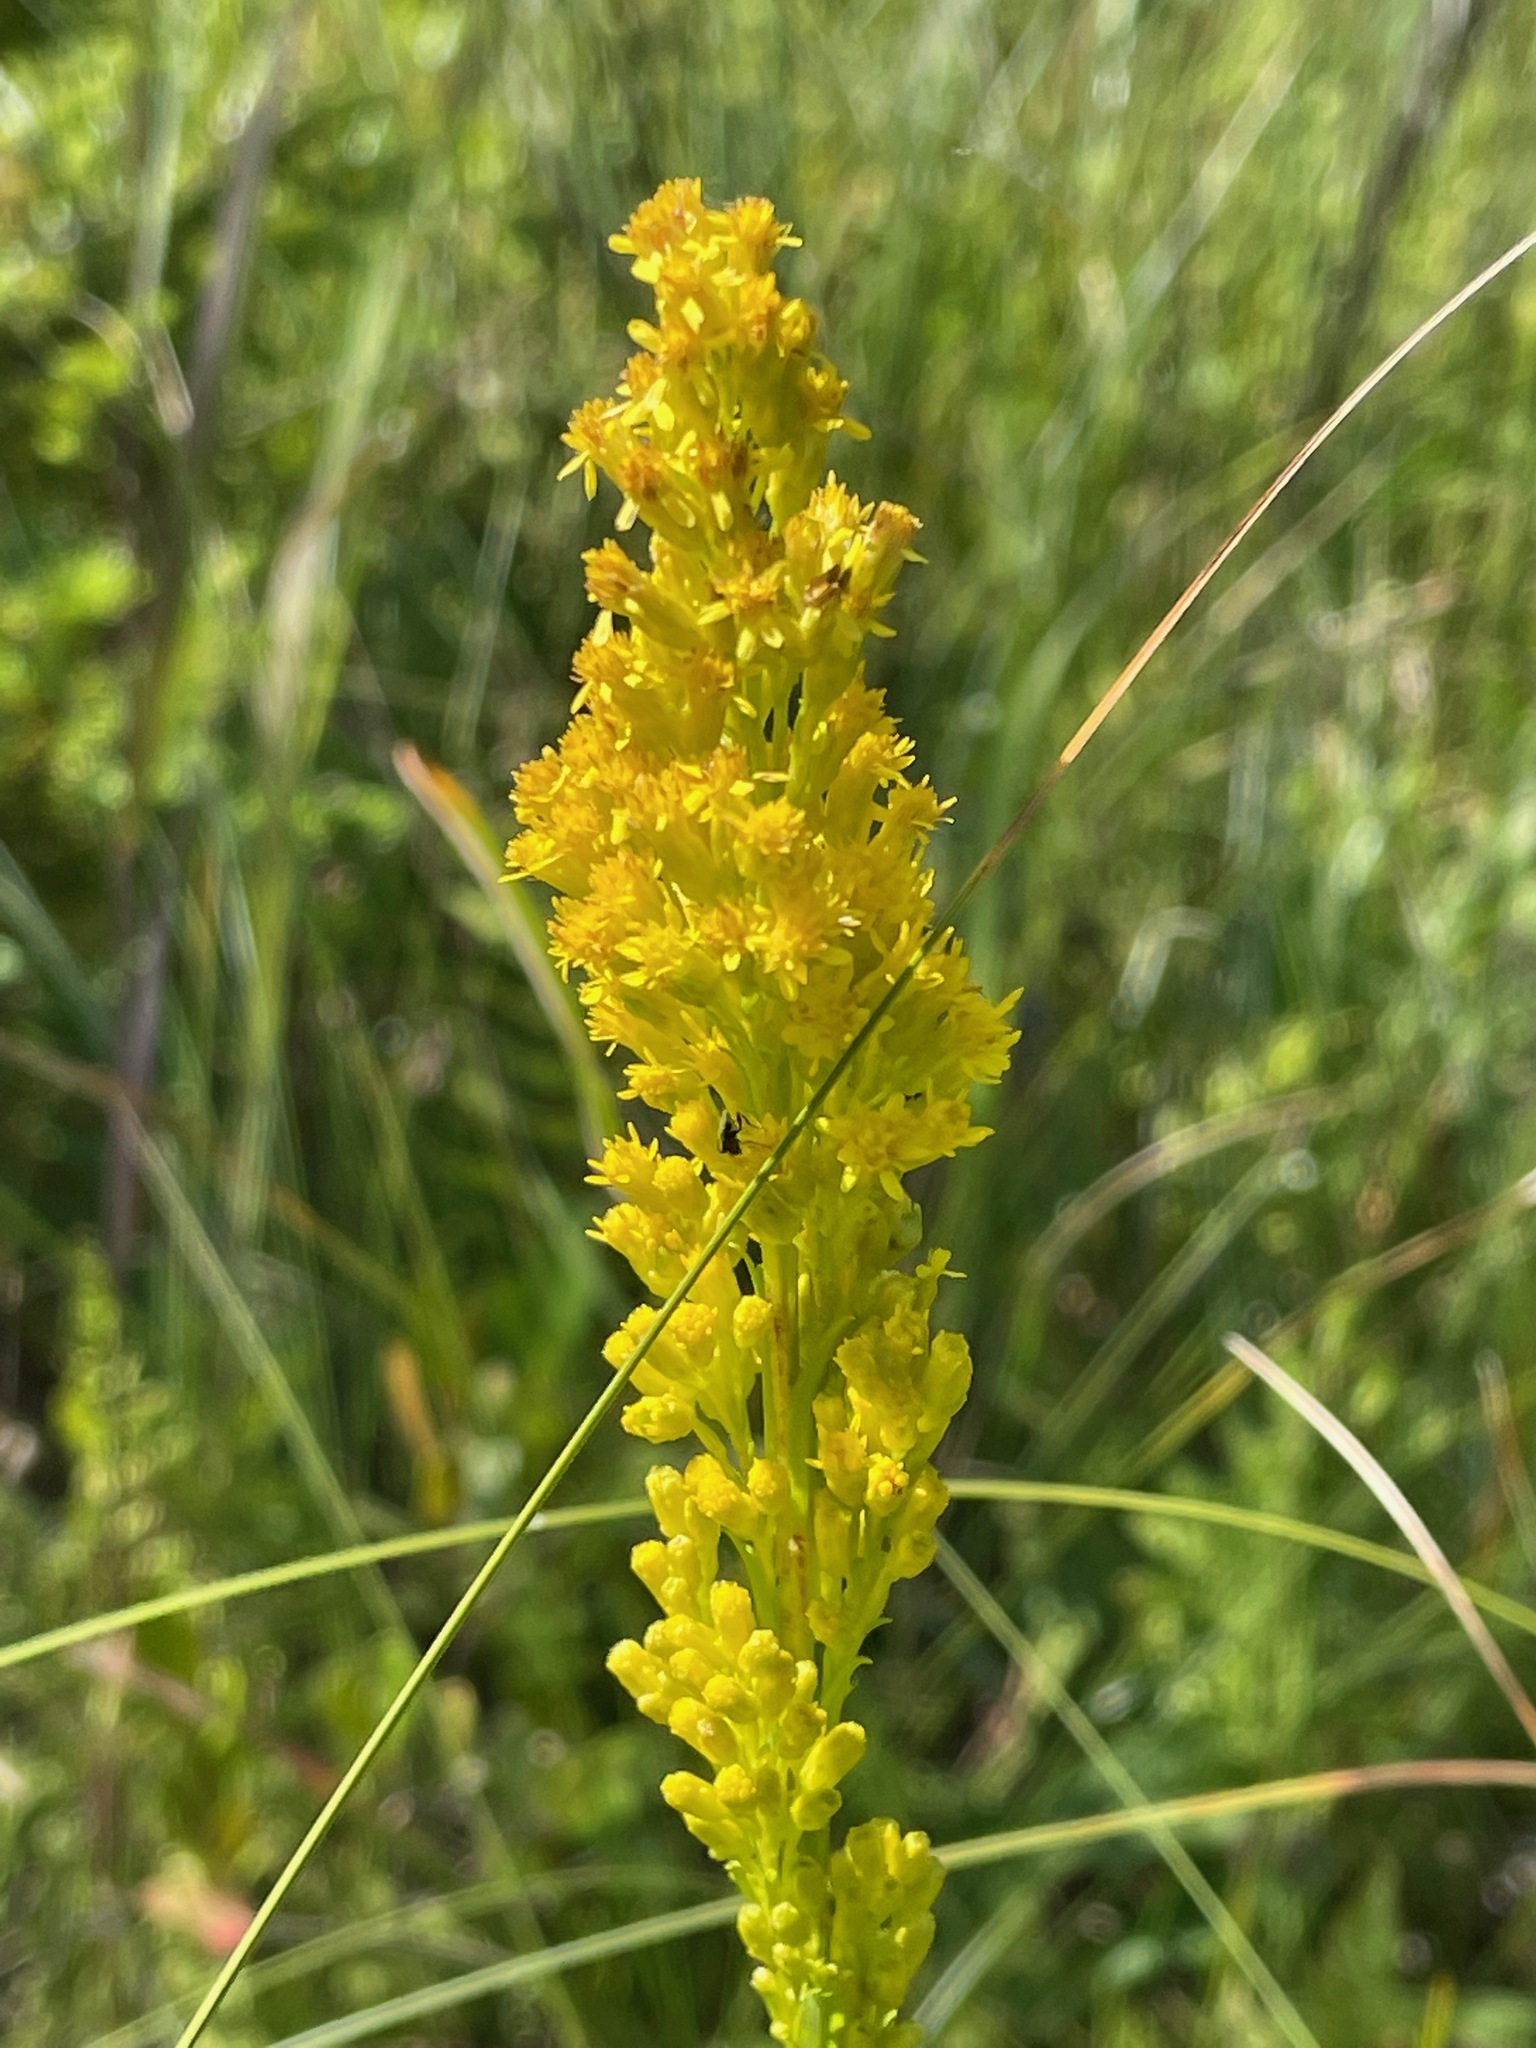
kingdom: Plantae
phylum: Tracheophyta
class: Magnoliopsida
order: Asterales
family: Asteraceae
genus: Solidago
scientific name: Solidago uliginosa
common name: Bog goldenrod
